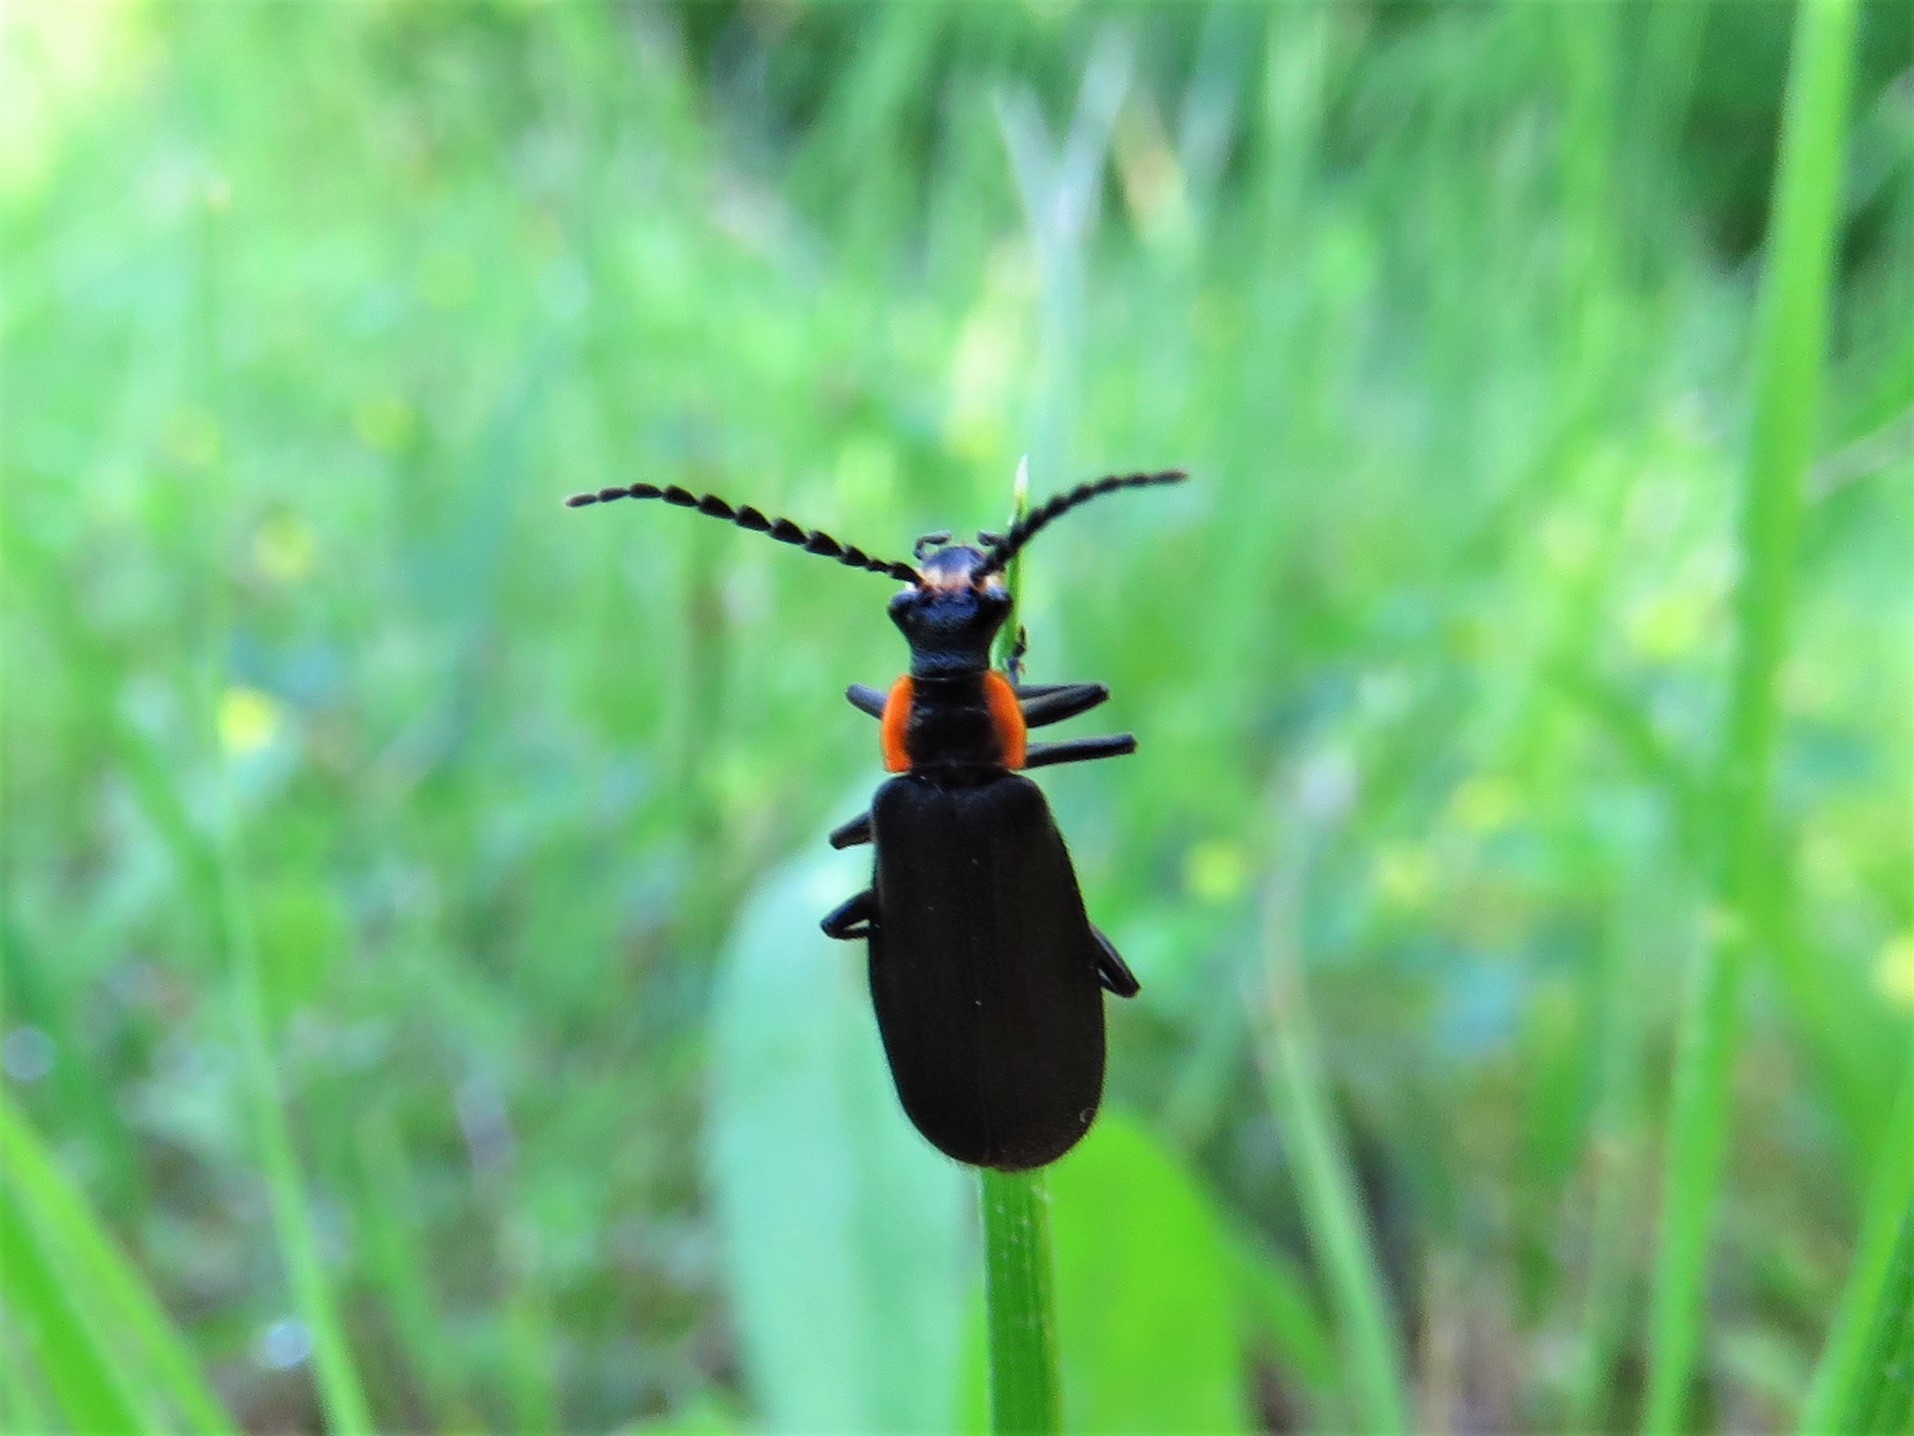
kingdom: Animalia
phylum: Arthropoda
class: Insecta
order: Coleoptera
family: Cantharidae
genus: Podabrus
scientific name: Podabrus rugosulus
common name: Wrinkled soldier beetle
